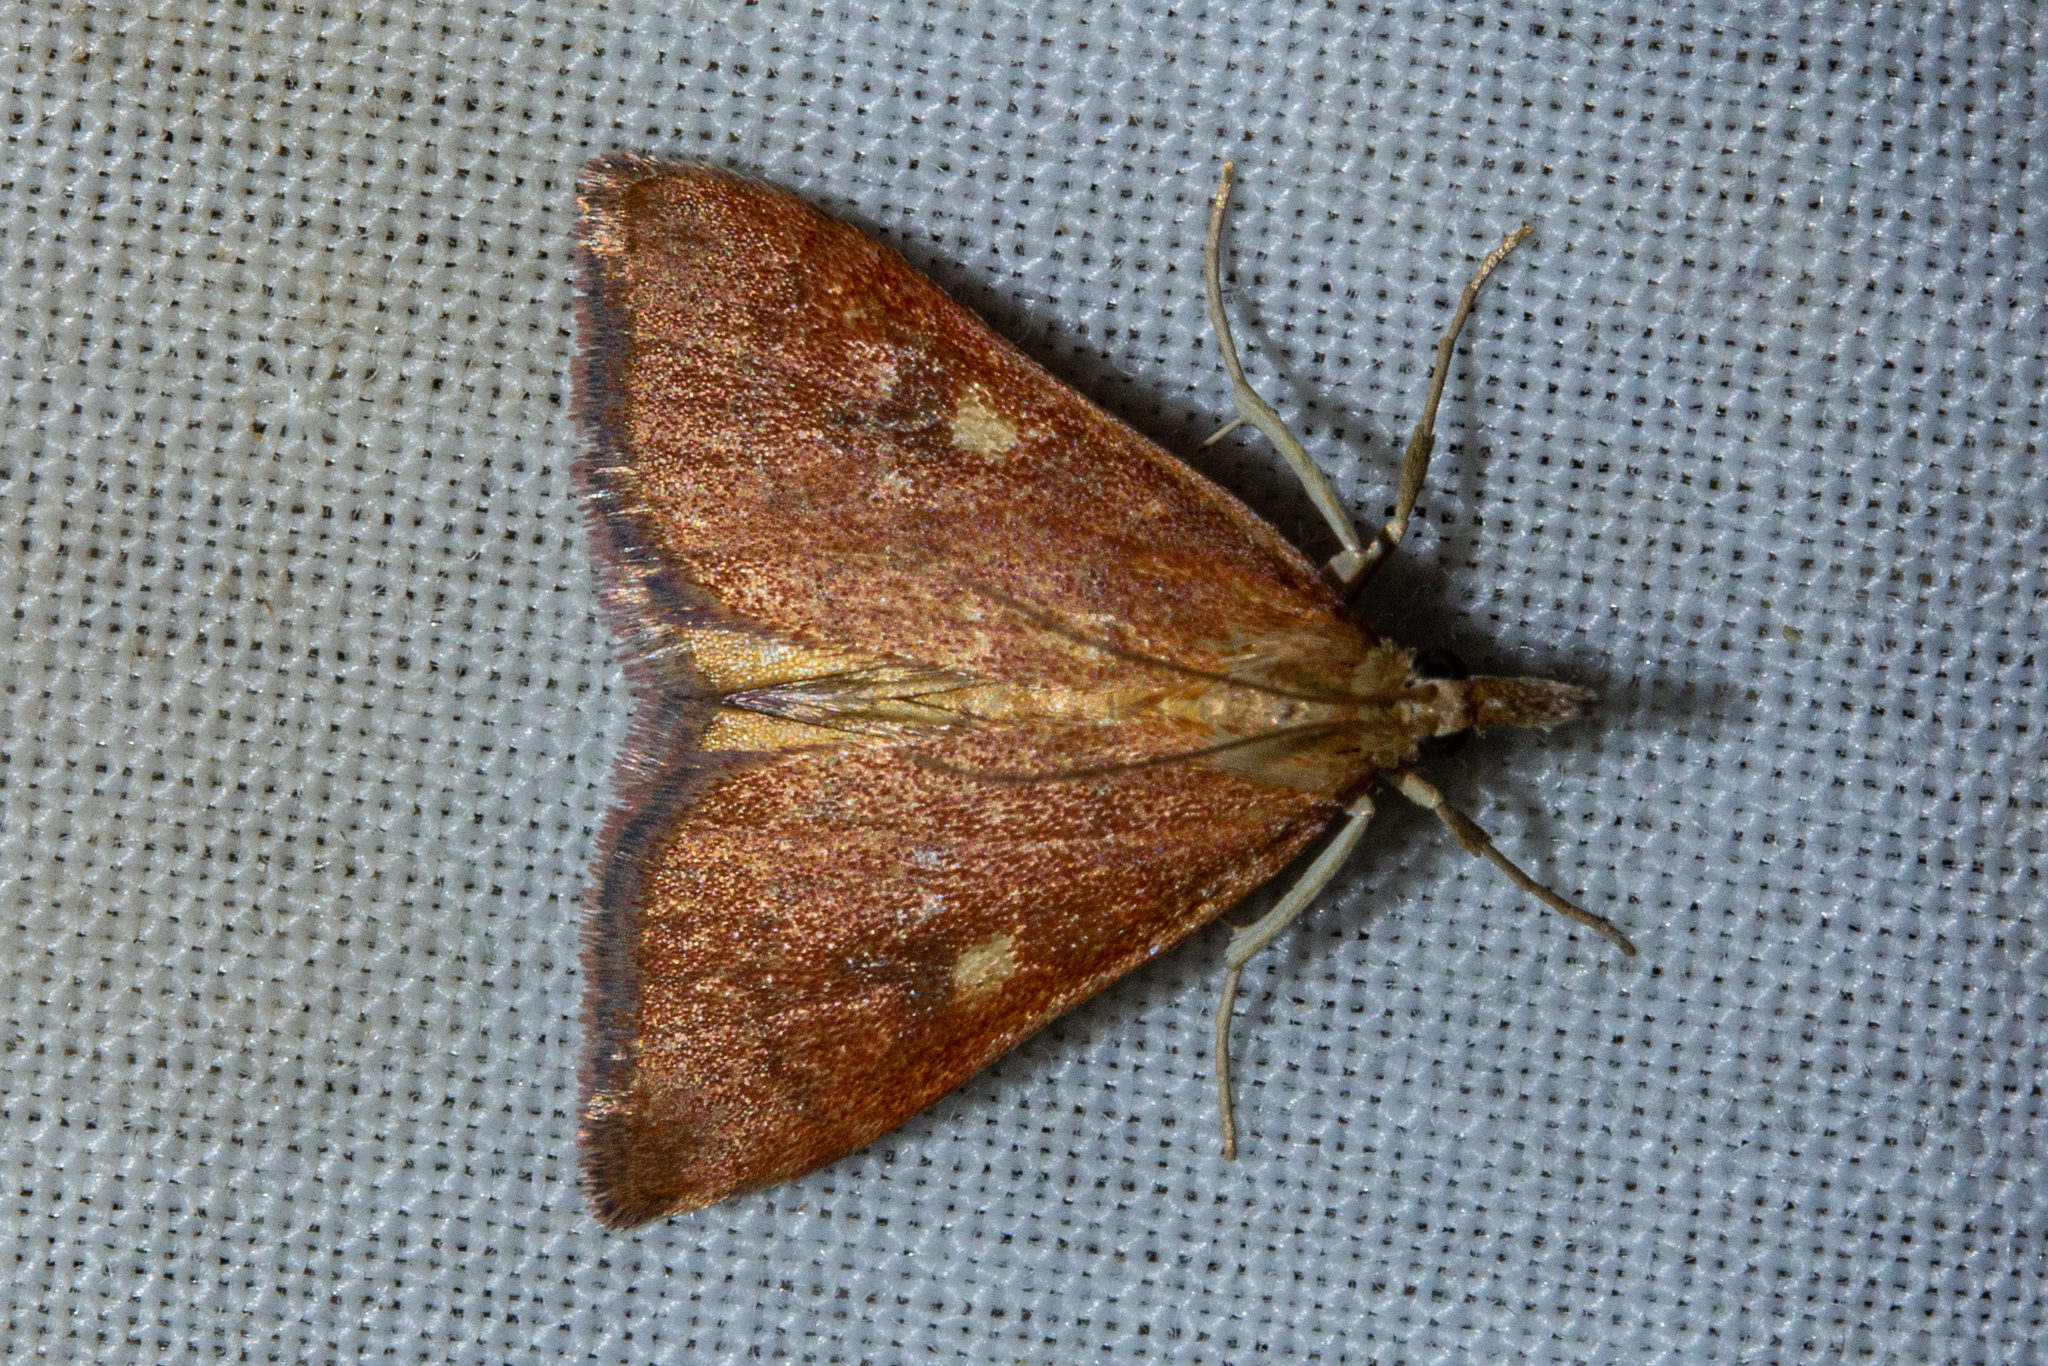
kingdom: Animalia
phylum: Arthropoda
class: Insecta
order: Lepidoptera
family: Crambidae
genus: Udea
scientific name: Udea Mnesictena flavidalis
